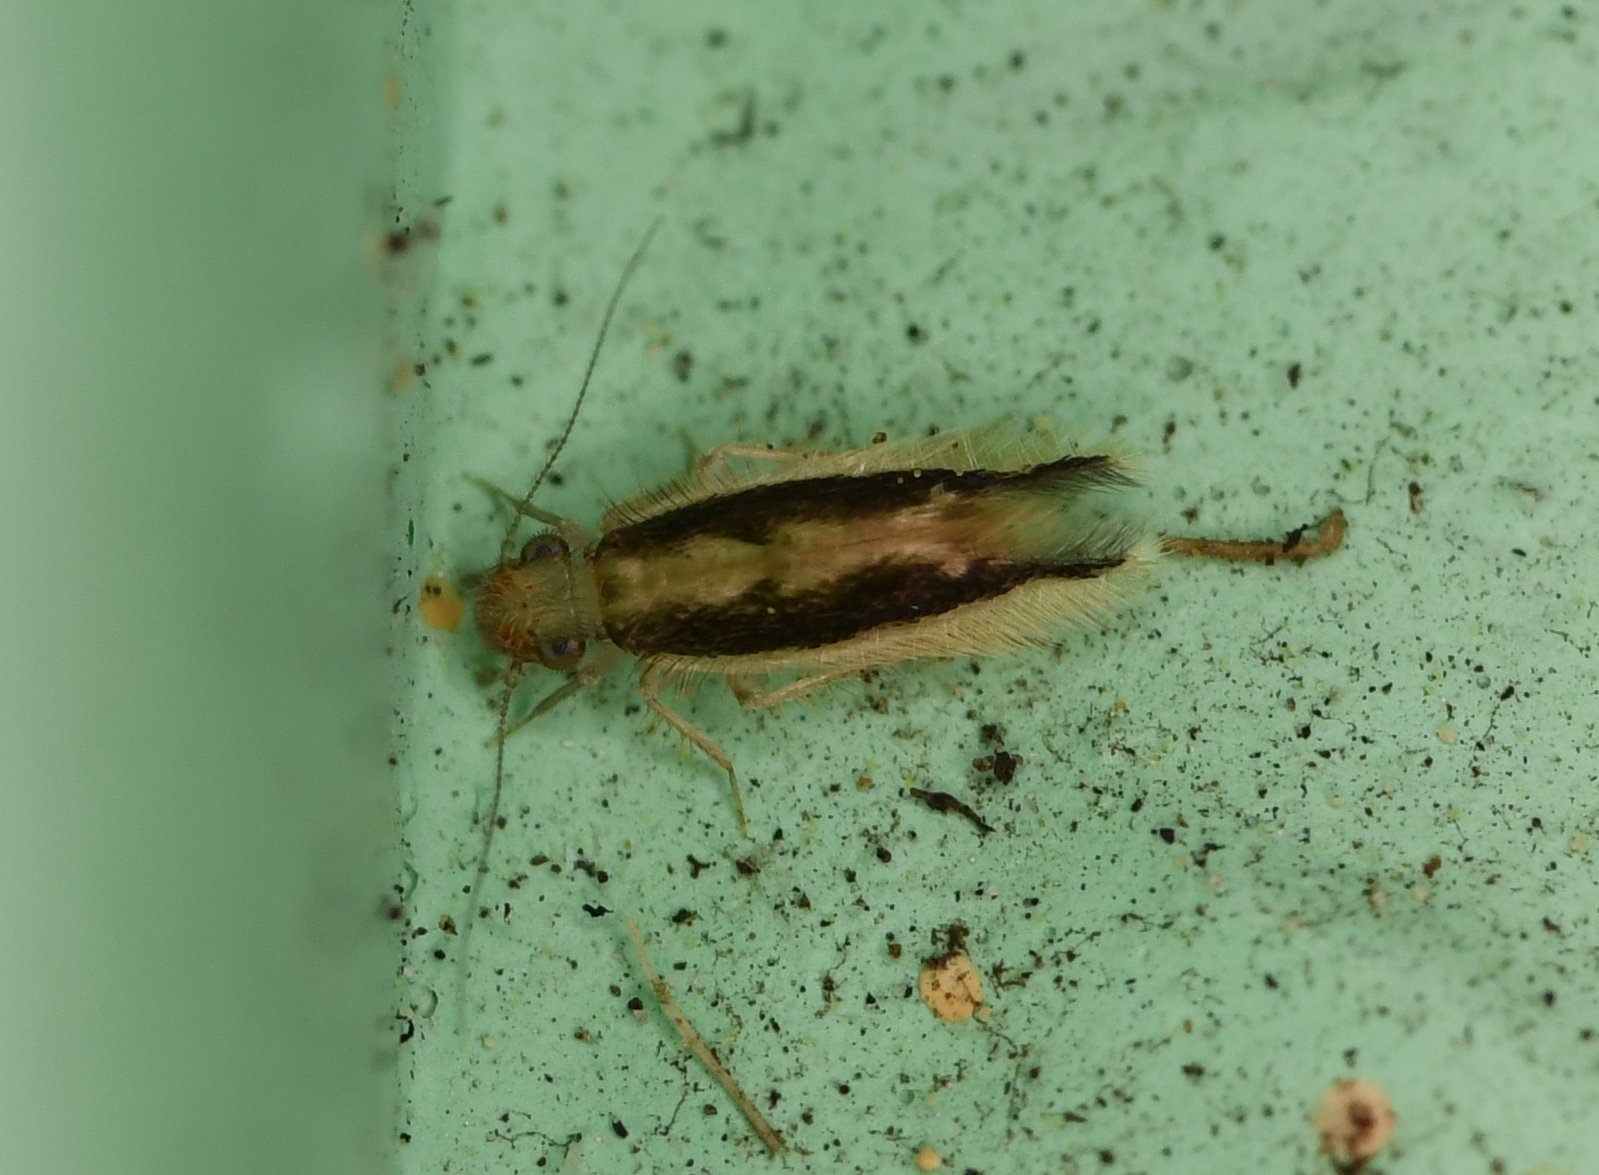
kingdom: Animalia
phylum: Arthropoda
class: Insecta
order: Psocodea
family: Lepidopsocidae
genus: Echmepteryx
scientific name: Echmepteryx madagascariensis
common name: Bark lice
